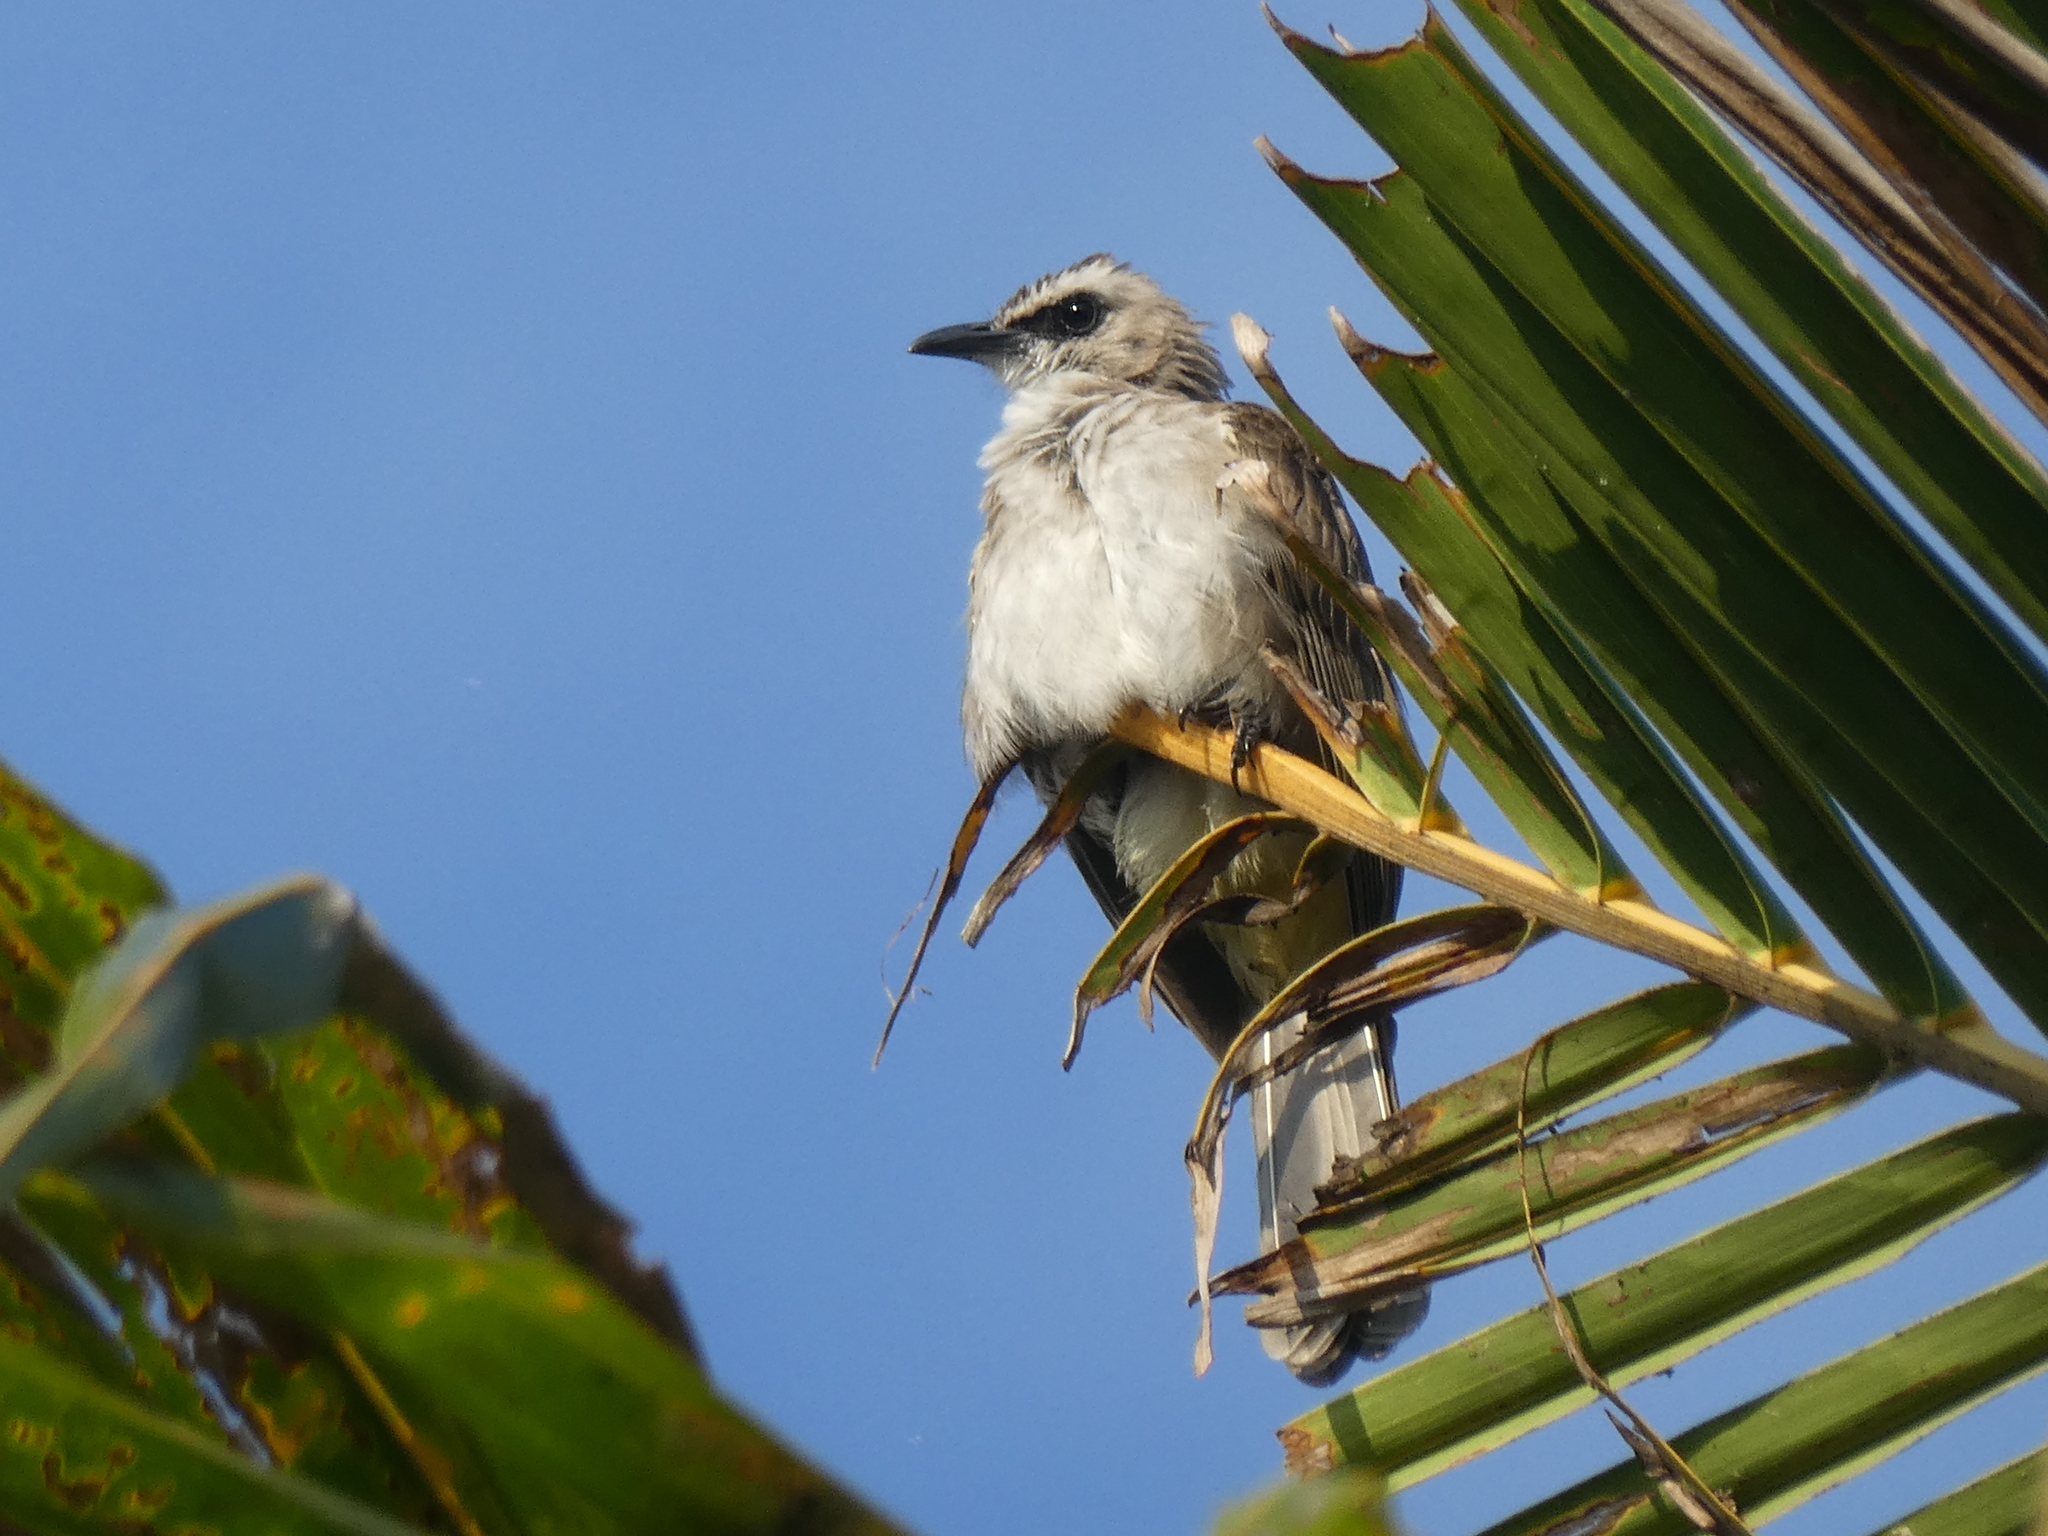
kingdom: Animalia
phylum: Chordata
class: Aves
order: Passeriformes
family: Pycnonotidae
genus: Pycnonotus
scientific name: Pycnonotus goiavier
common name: Yellow-vented bulbul
